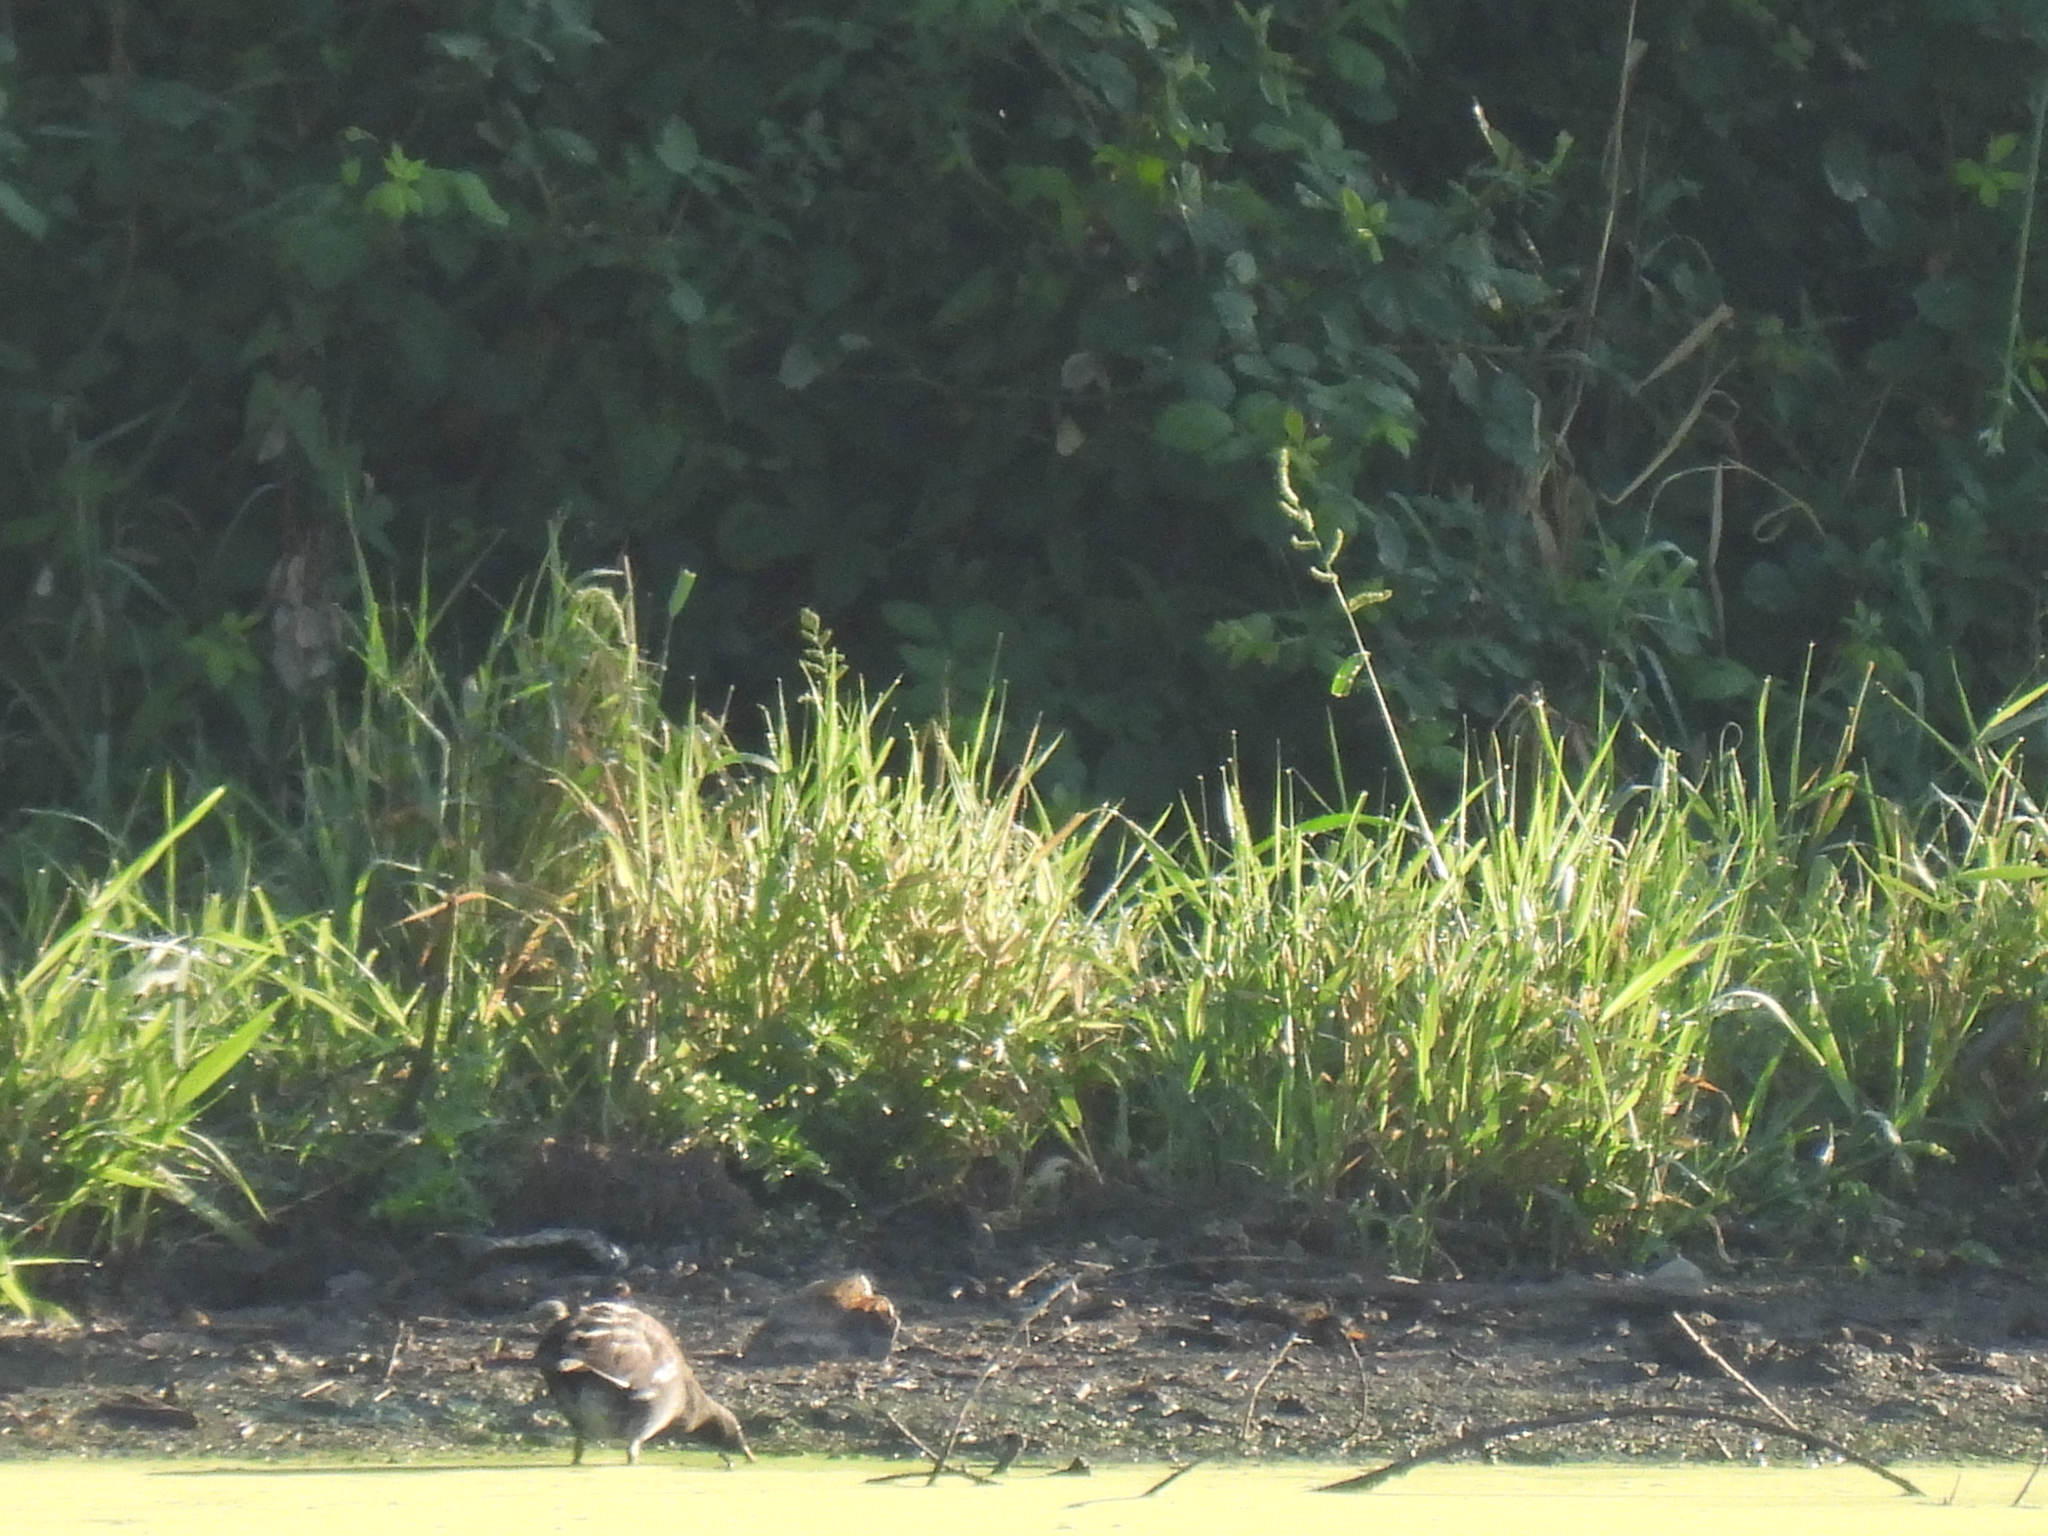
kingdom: Animalia
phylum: Chordata
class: Aves
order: Gruiformes
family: Rallidae
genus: Gallinula
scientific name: Gallinula chloropus
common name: Common moorhen
